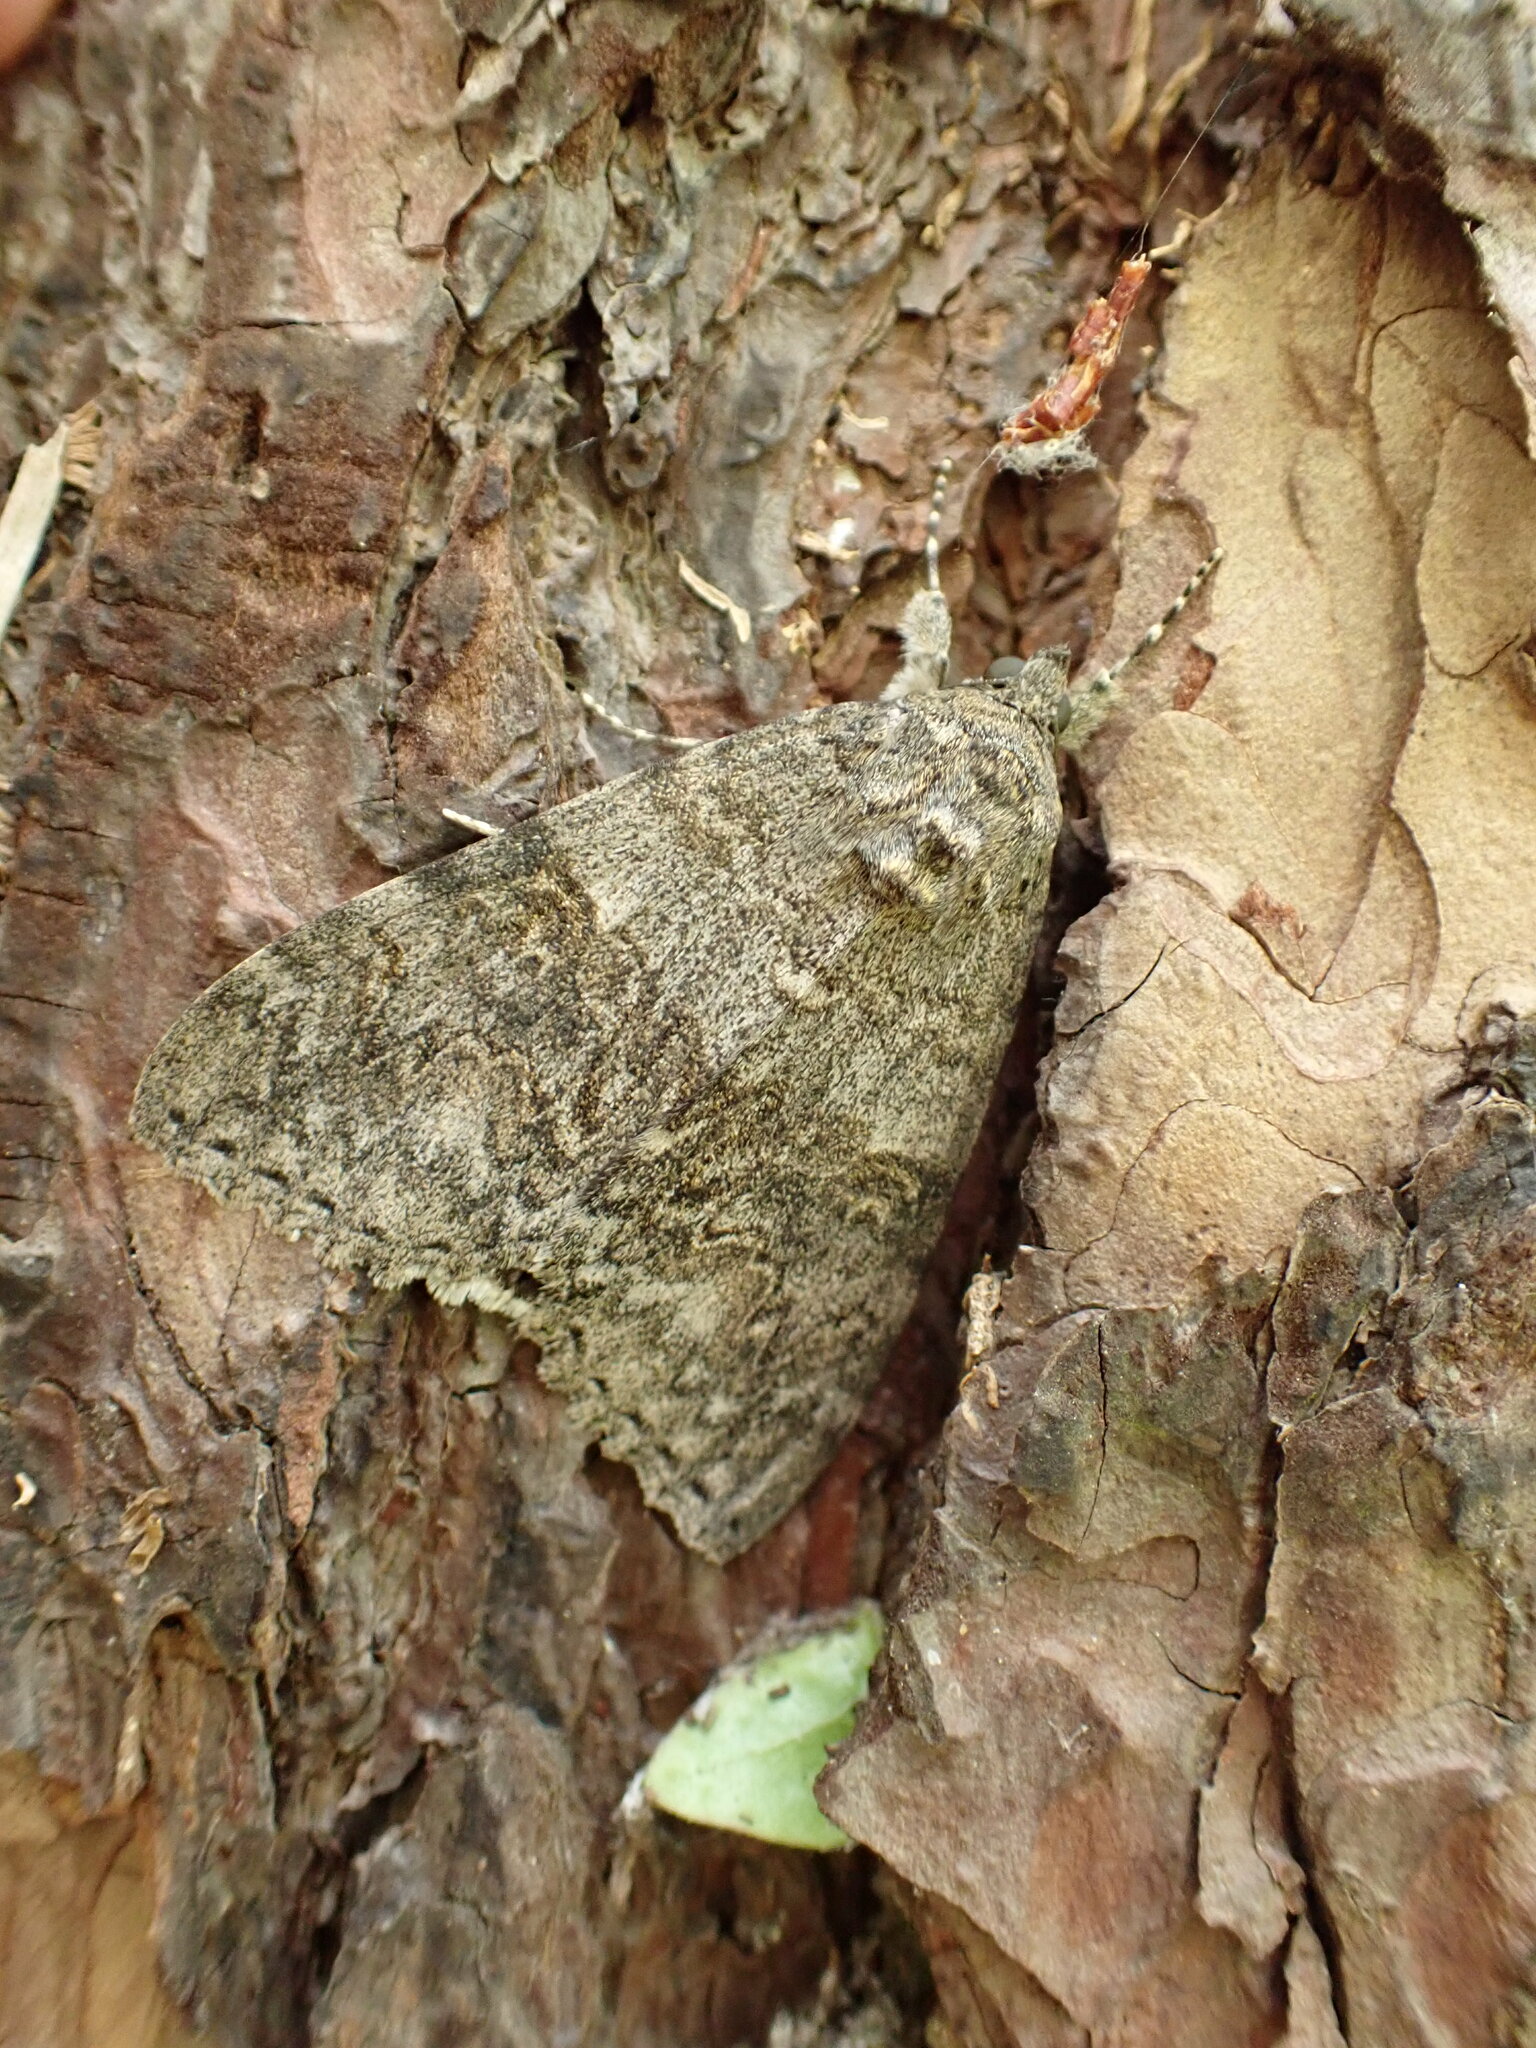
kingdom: Animalia
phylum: Arthropoda
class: Insecta
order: Lepidoptera
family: Erebidae
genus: Catocala
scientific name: Catocala nupta
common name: Red underwing
